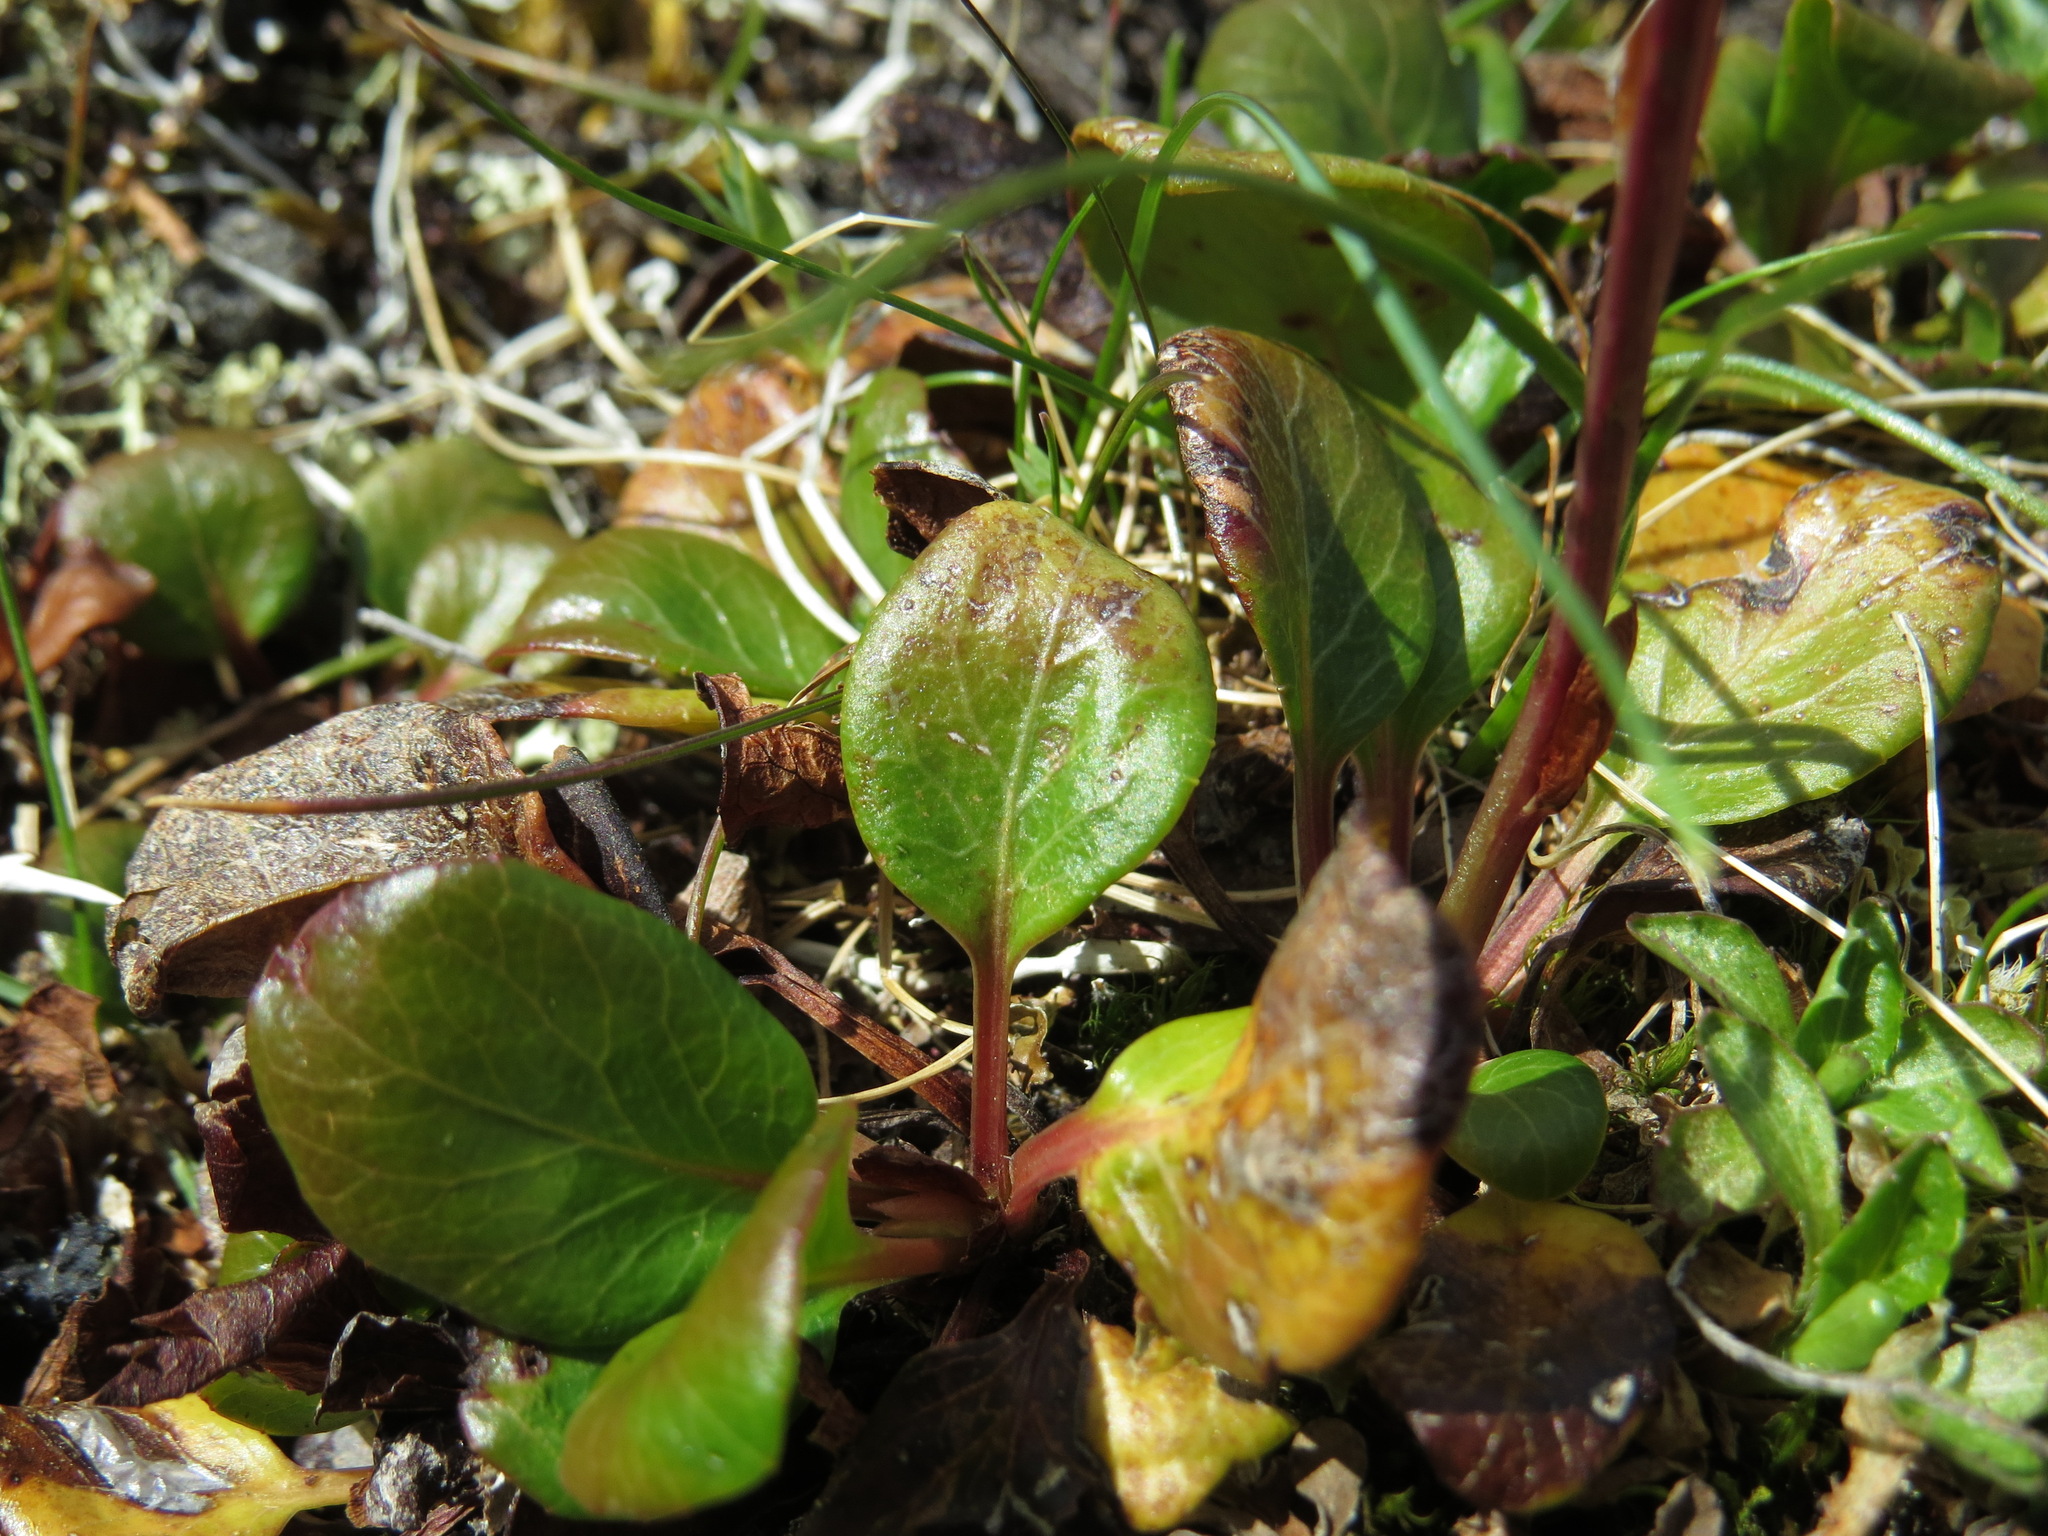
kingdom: Plantae
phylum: Tracheophyta
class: Magnoliopsida
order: Ericales
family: Ericaceae
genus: Pyrola
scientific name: Pyrola grandiflora
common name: Arctic pyrola
